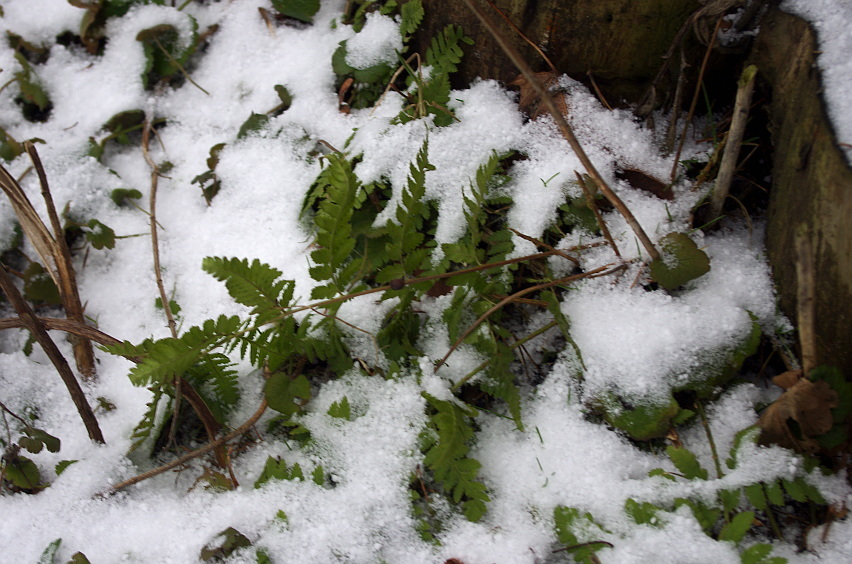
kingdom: Plantae
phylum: Tracheophyta
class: Polypodiopsida
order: Polypodiales
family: Dryopteridaceae
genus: Dryopteris
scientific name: Dryopteris carthusiana
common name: Narrow buckler-fern
